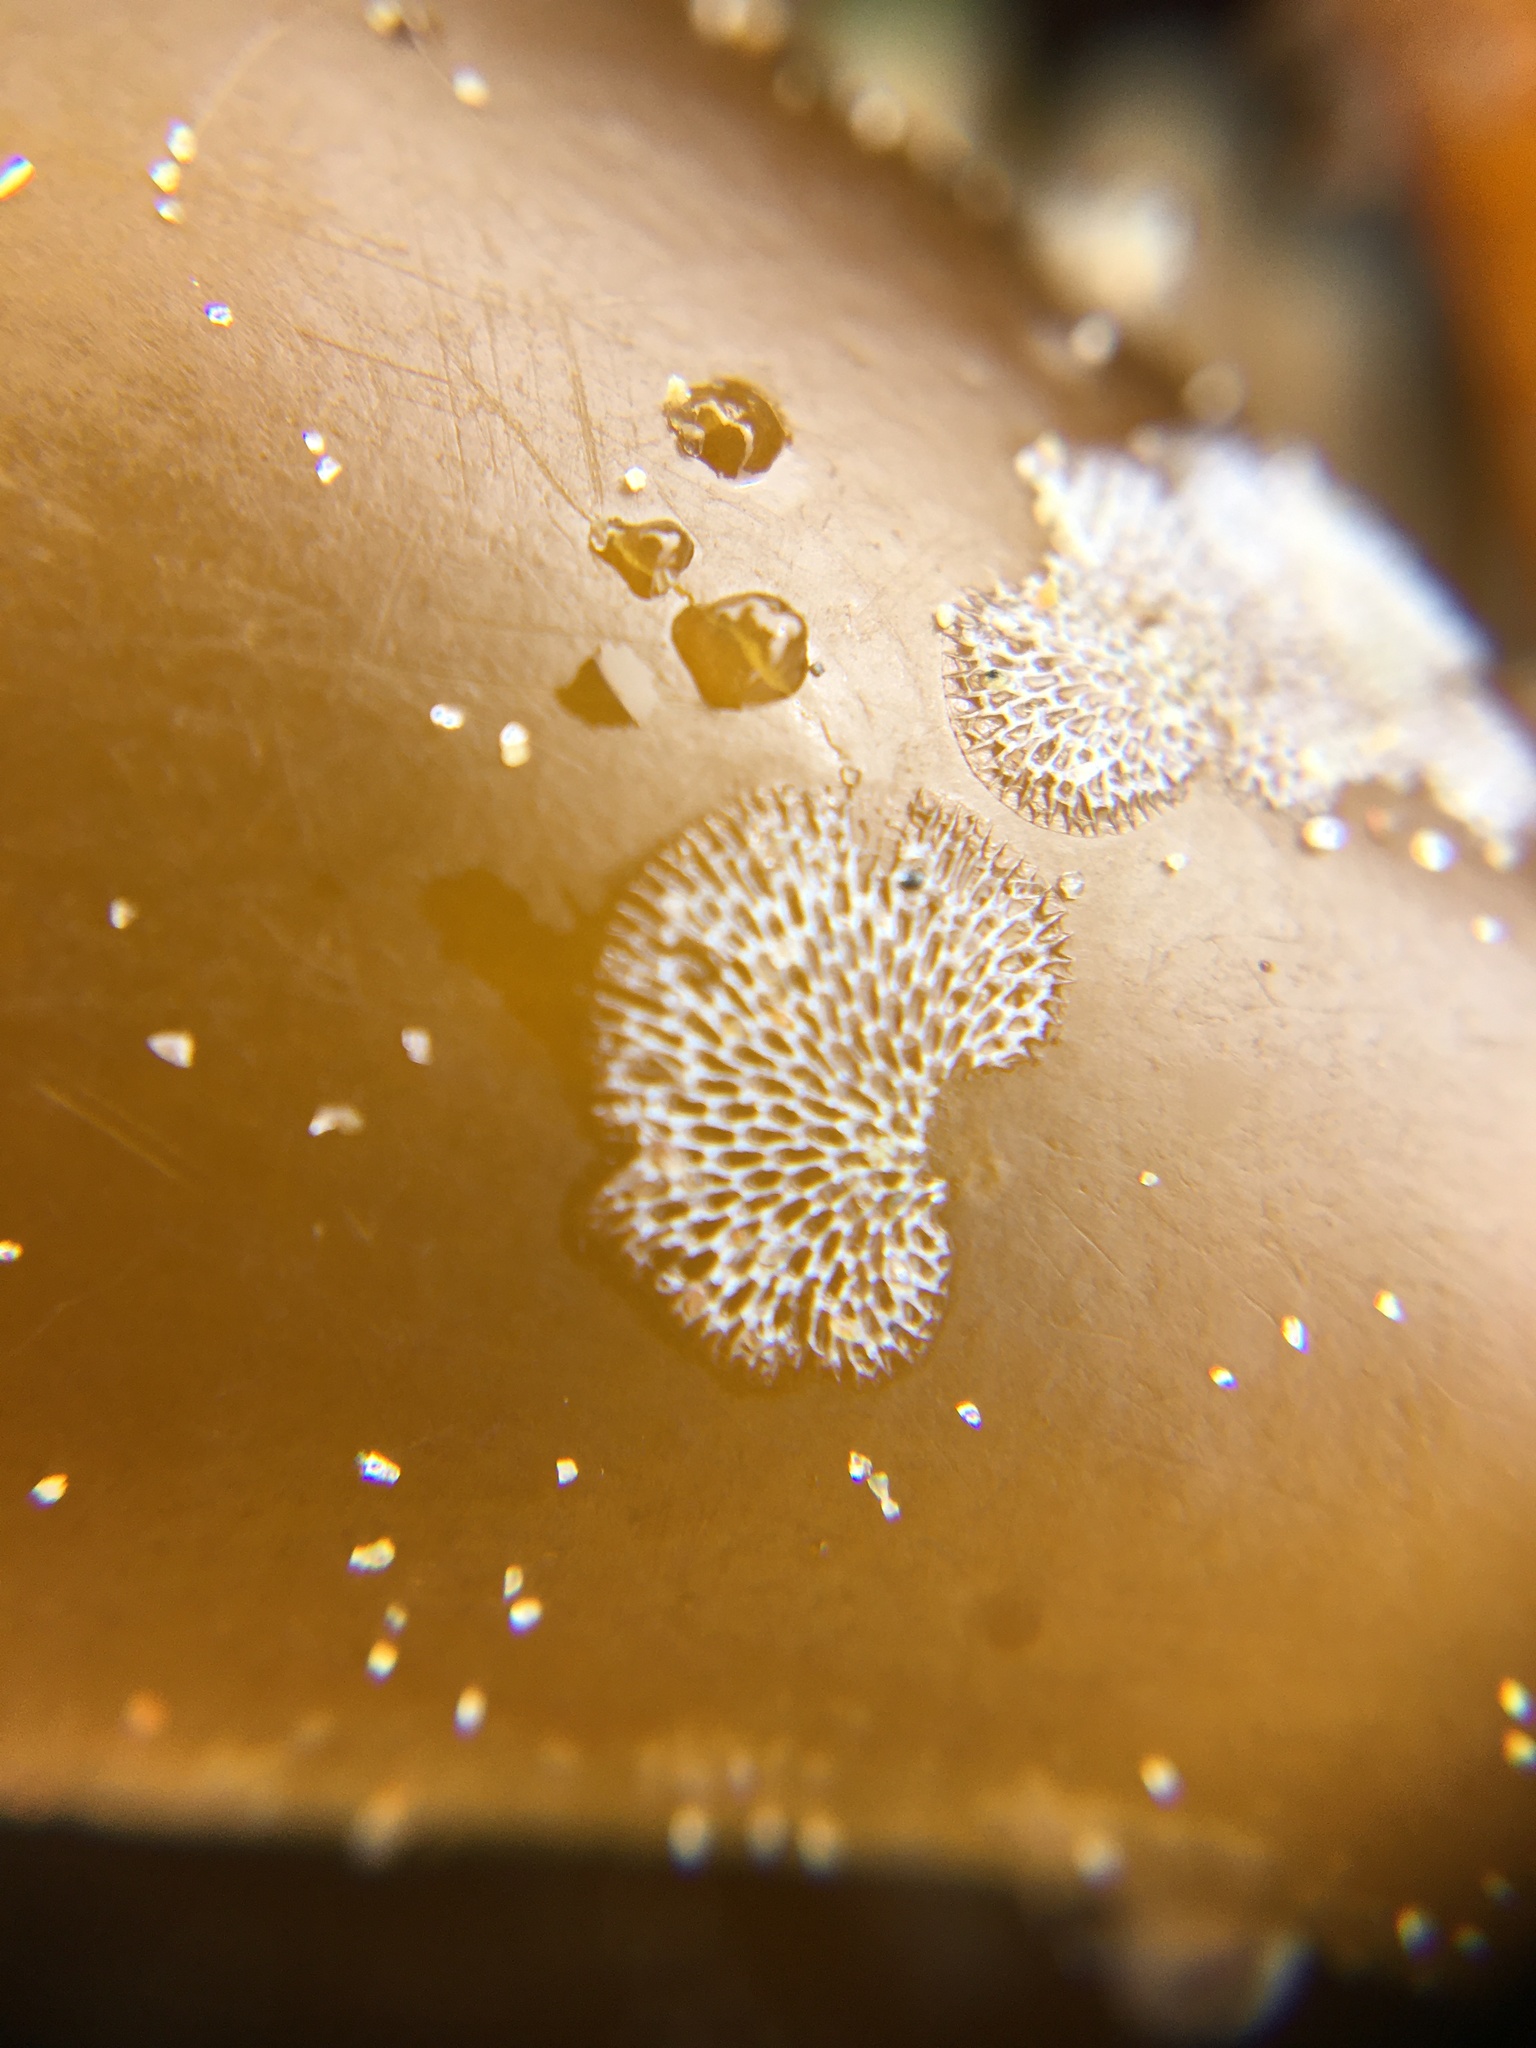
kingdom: Animalia
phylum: Bryozoa
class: Gymnolaemata
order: Cheilostomatida
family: Membraniporidae
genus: Membranipora
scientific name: Membranipora membranacea
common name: Sea mat
